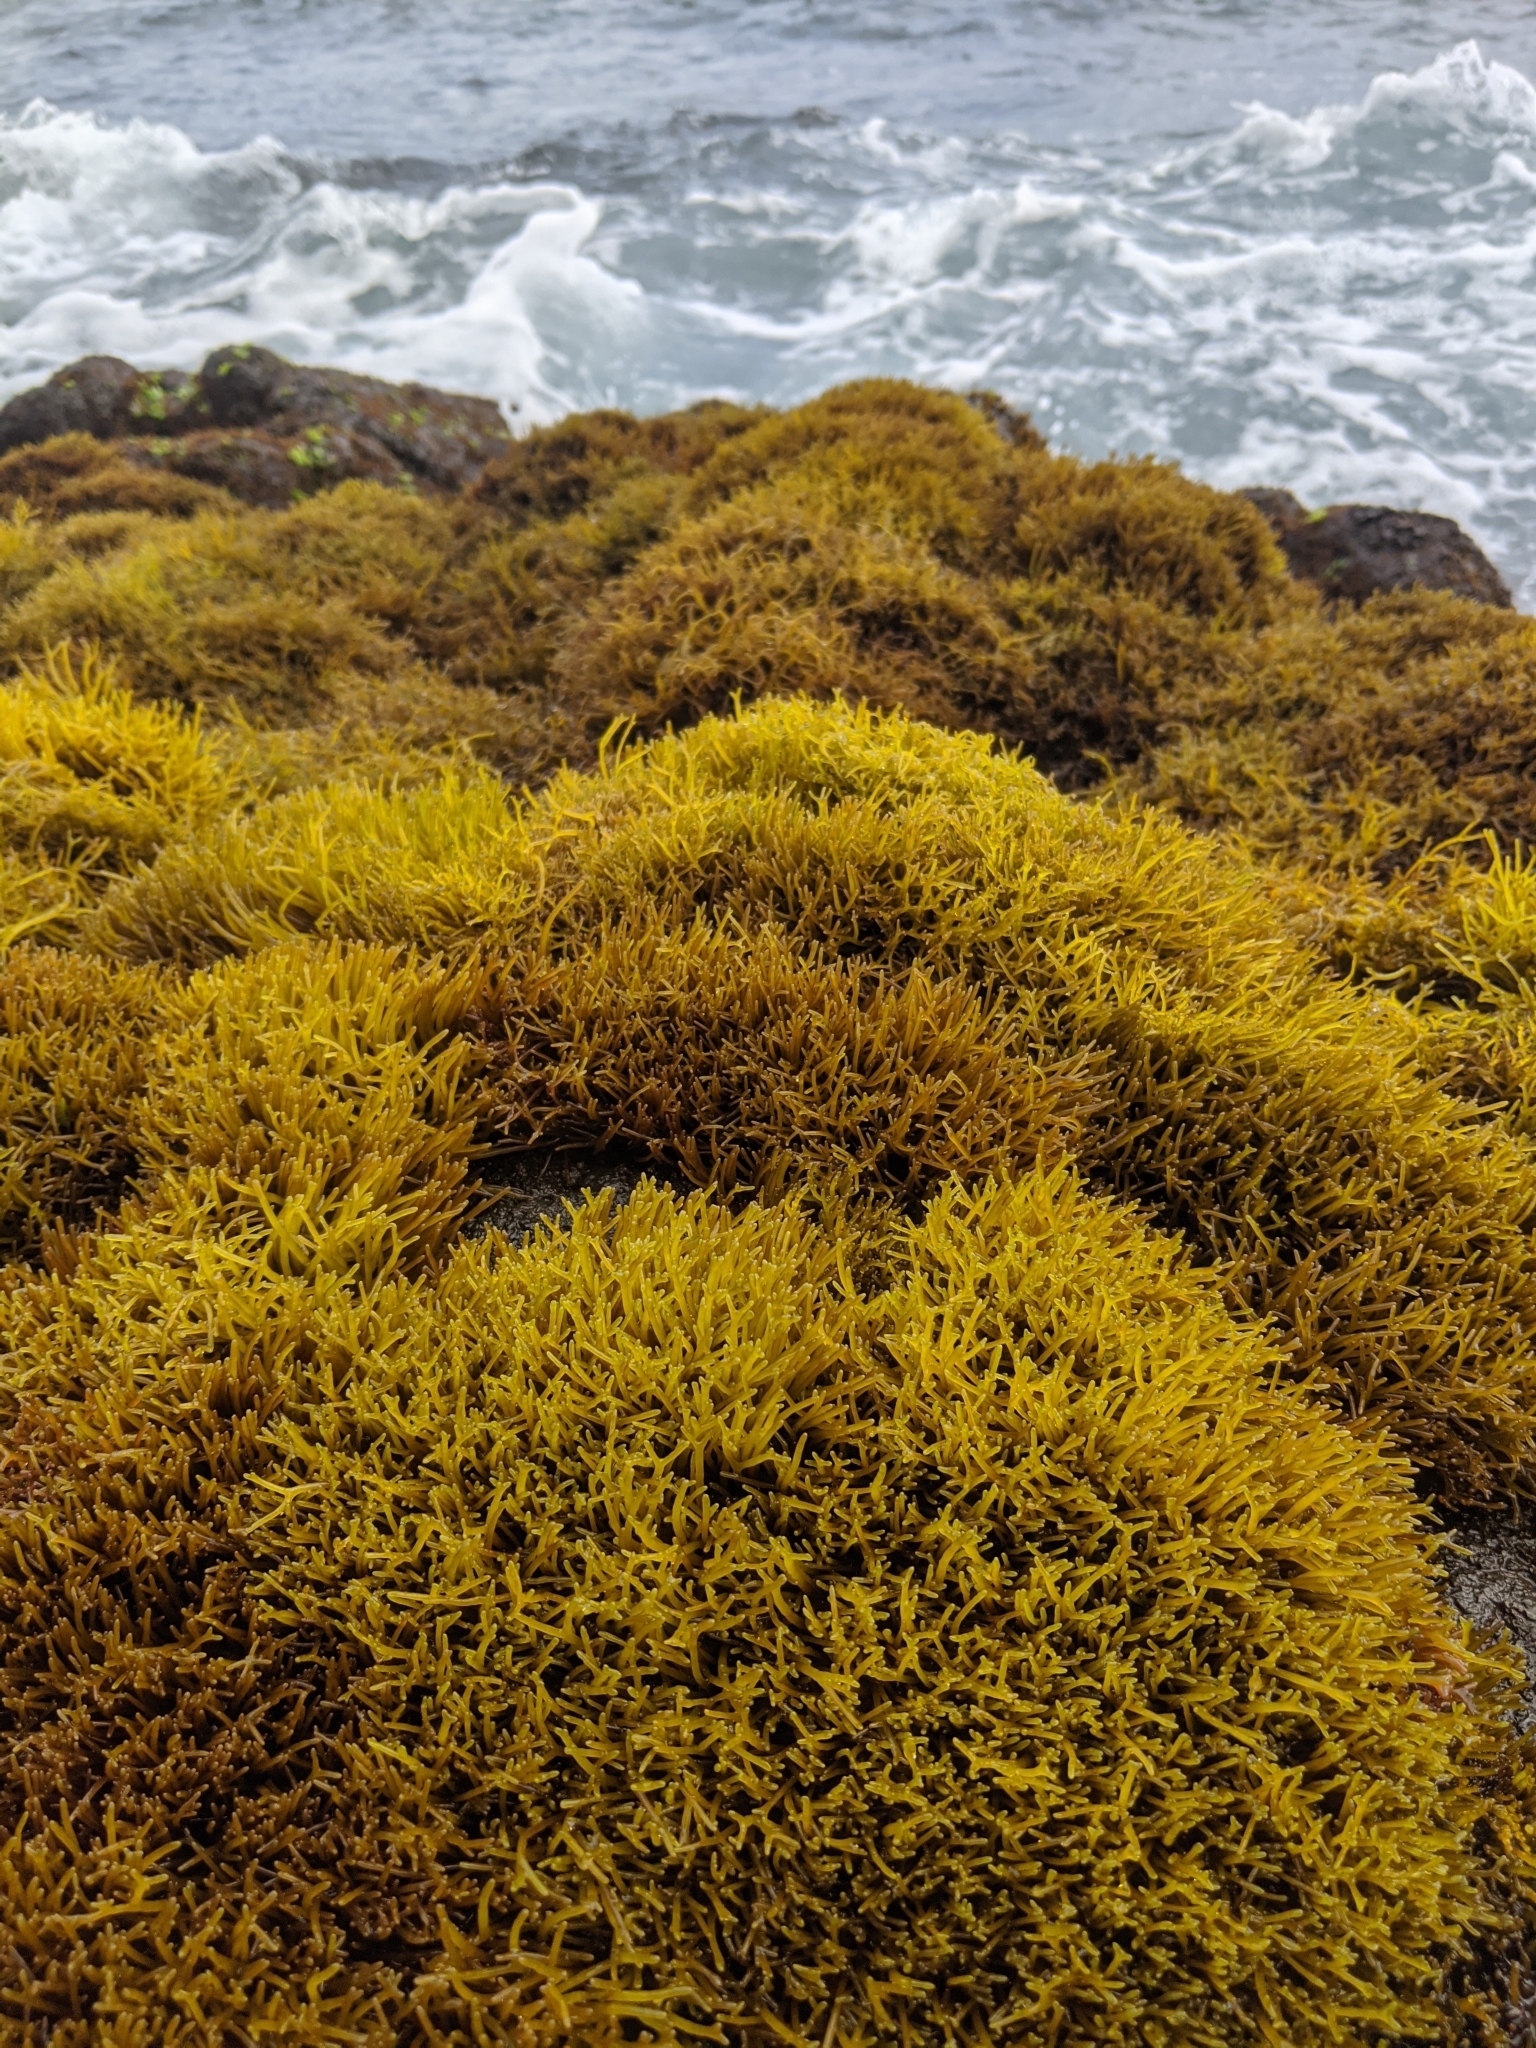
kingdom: Plantae
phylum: Rhodophyta
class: Florideophyceae
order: Gigartinales
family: Phyllophoraceae
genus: Gymnogongrus
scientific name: Gymnogongrus durvillei
